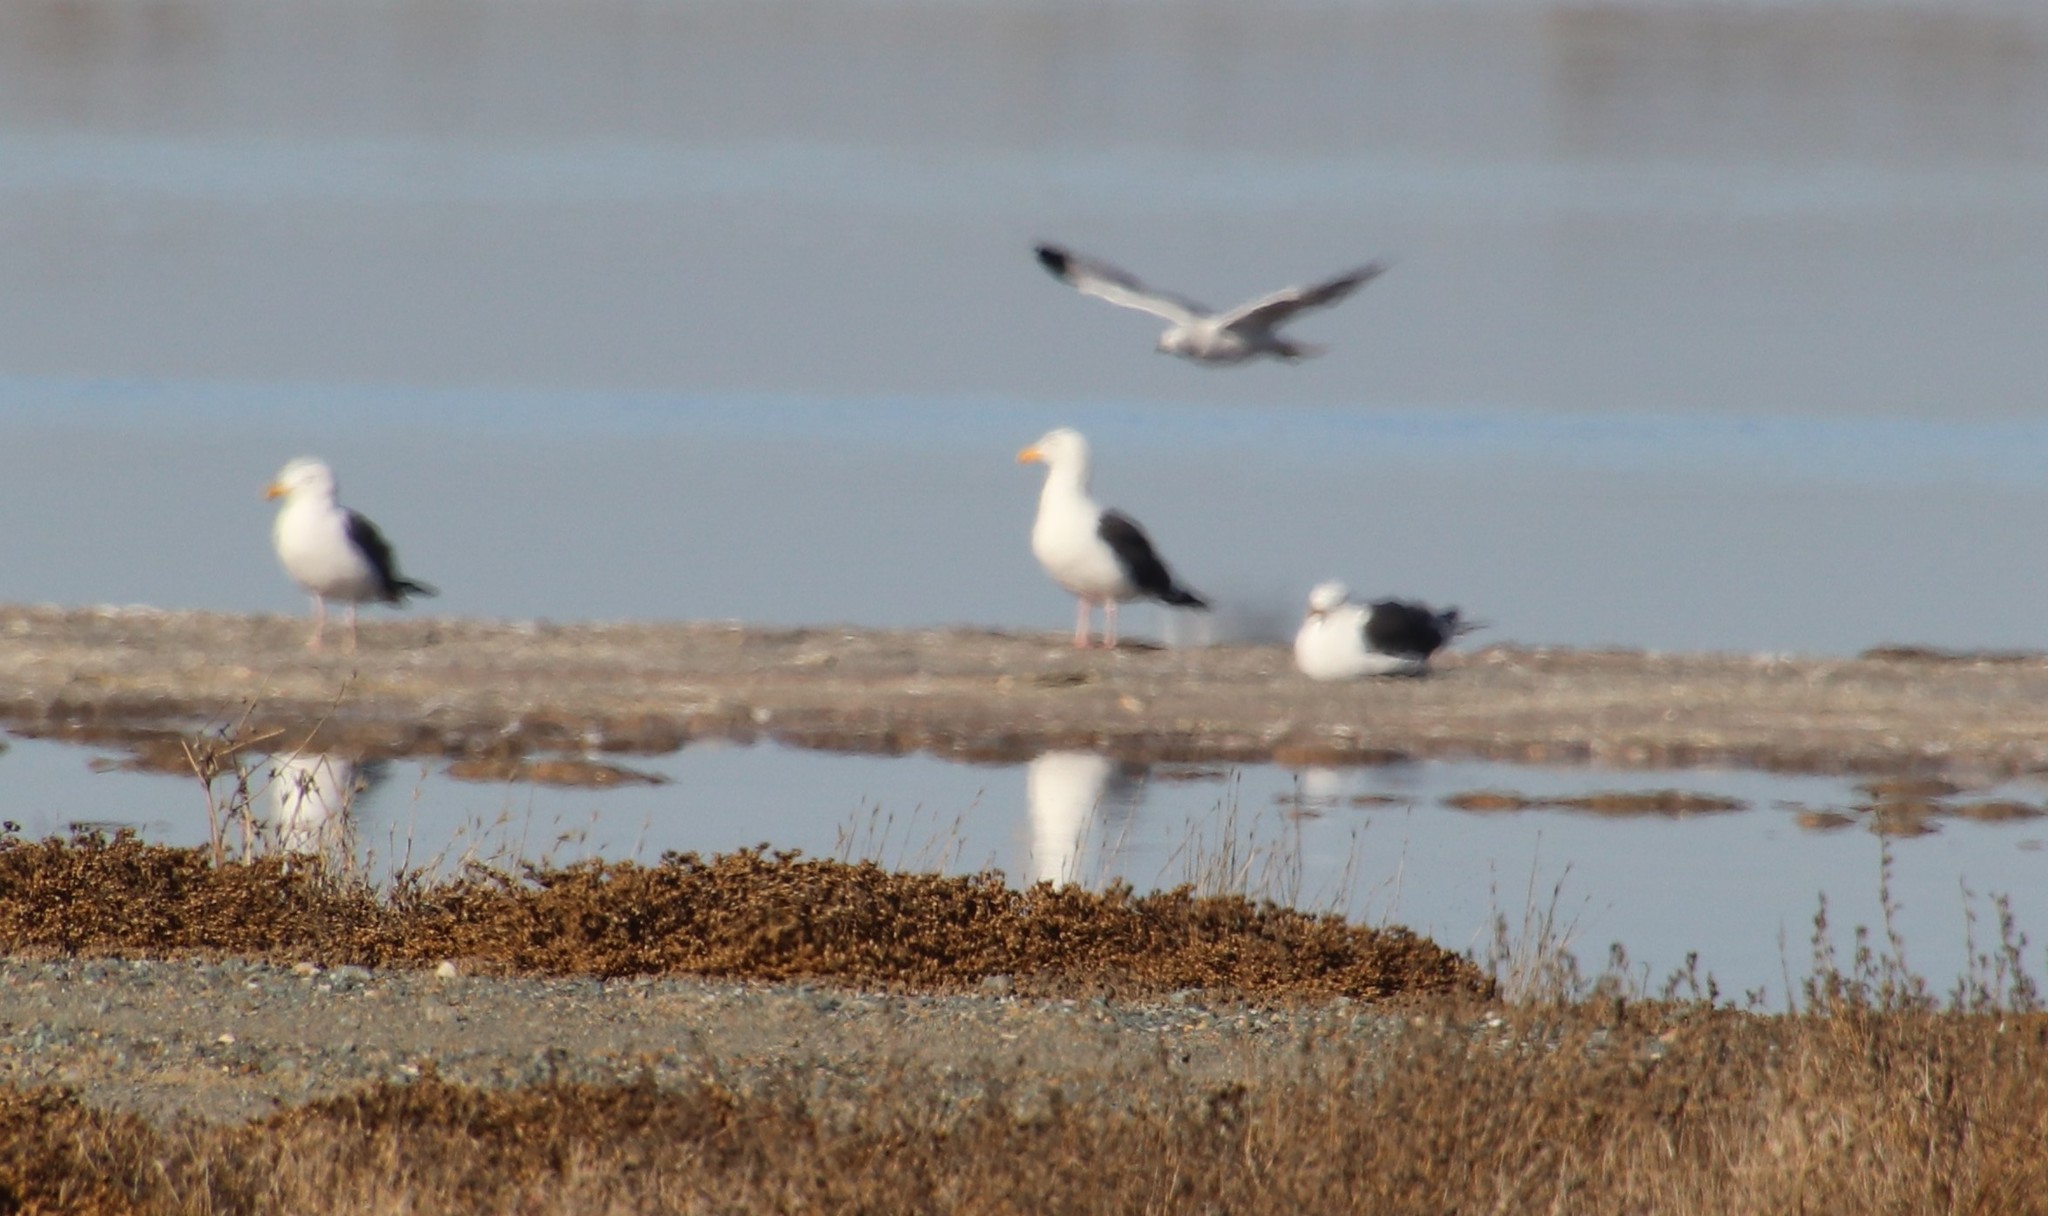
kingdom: Animalia
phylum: Chordata
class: Aves
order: Charadriiformes
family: Laridae
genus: Larus
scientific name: Larus occidentalis
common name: Western gull
